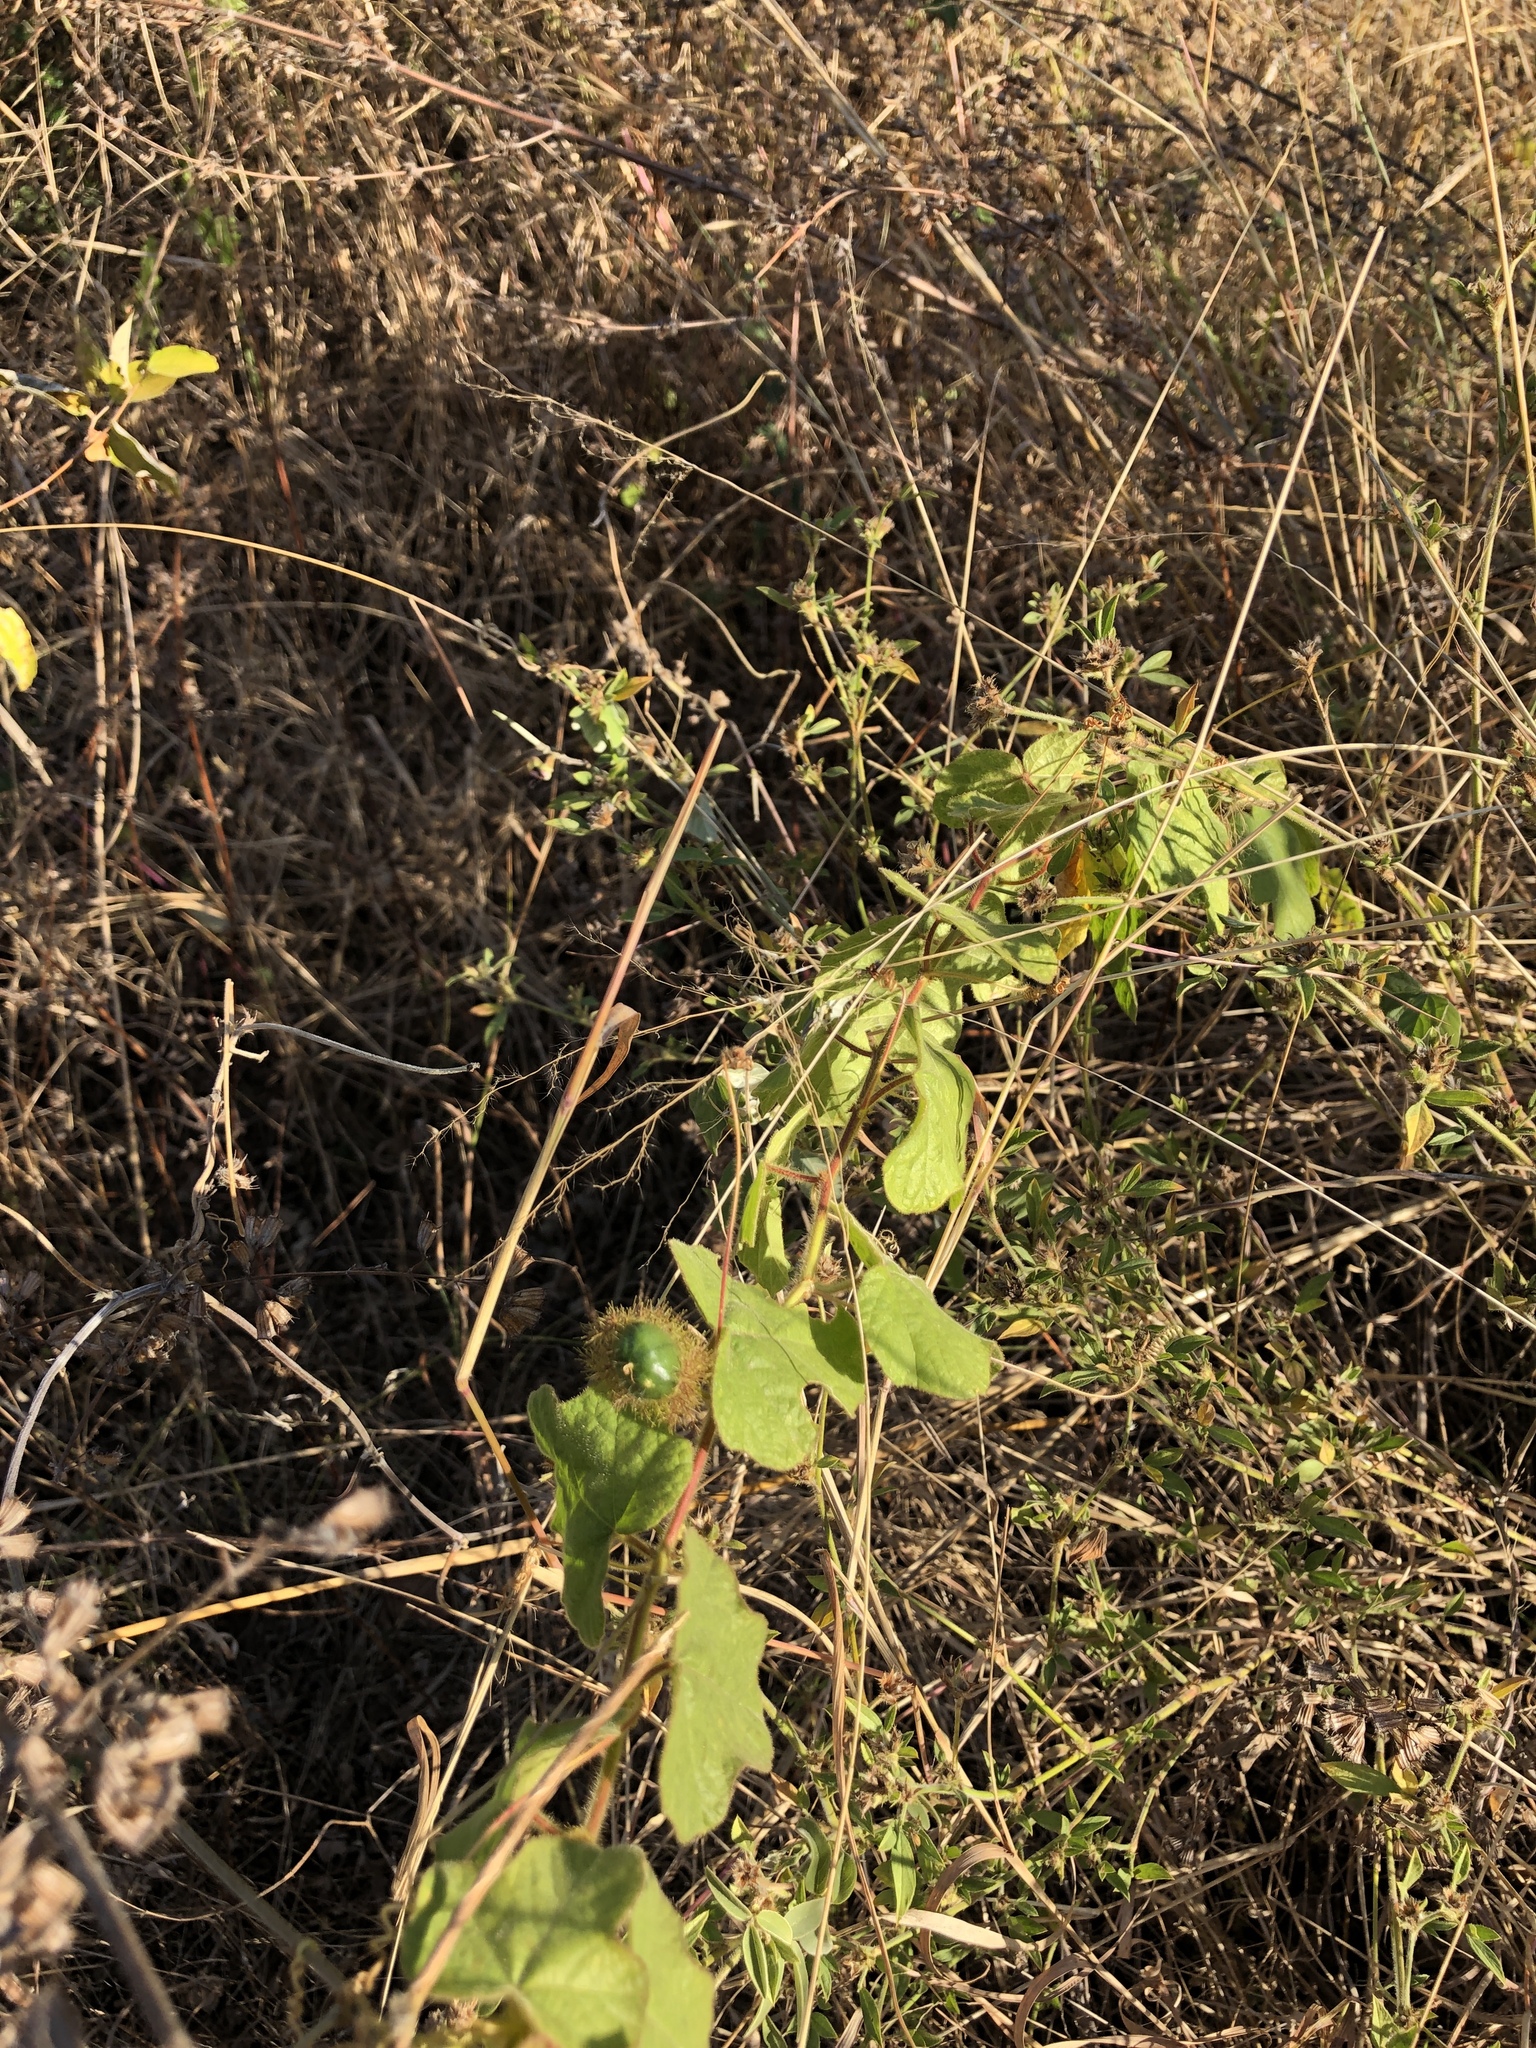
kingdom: Plantae
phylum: Tracheophyta
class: Magnoliopsida
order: Malpighiales
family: Passifloraceae
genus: Passiflora
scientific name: Passiflora foetida
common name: Fetid passionflower
